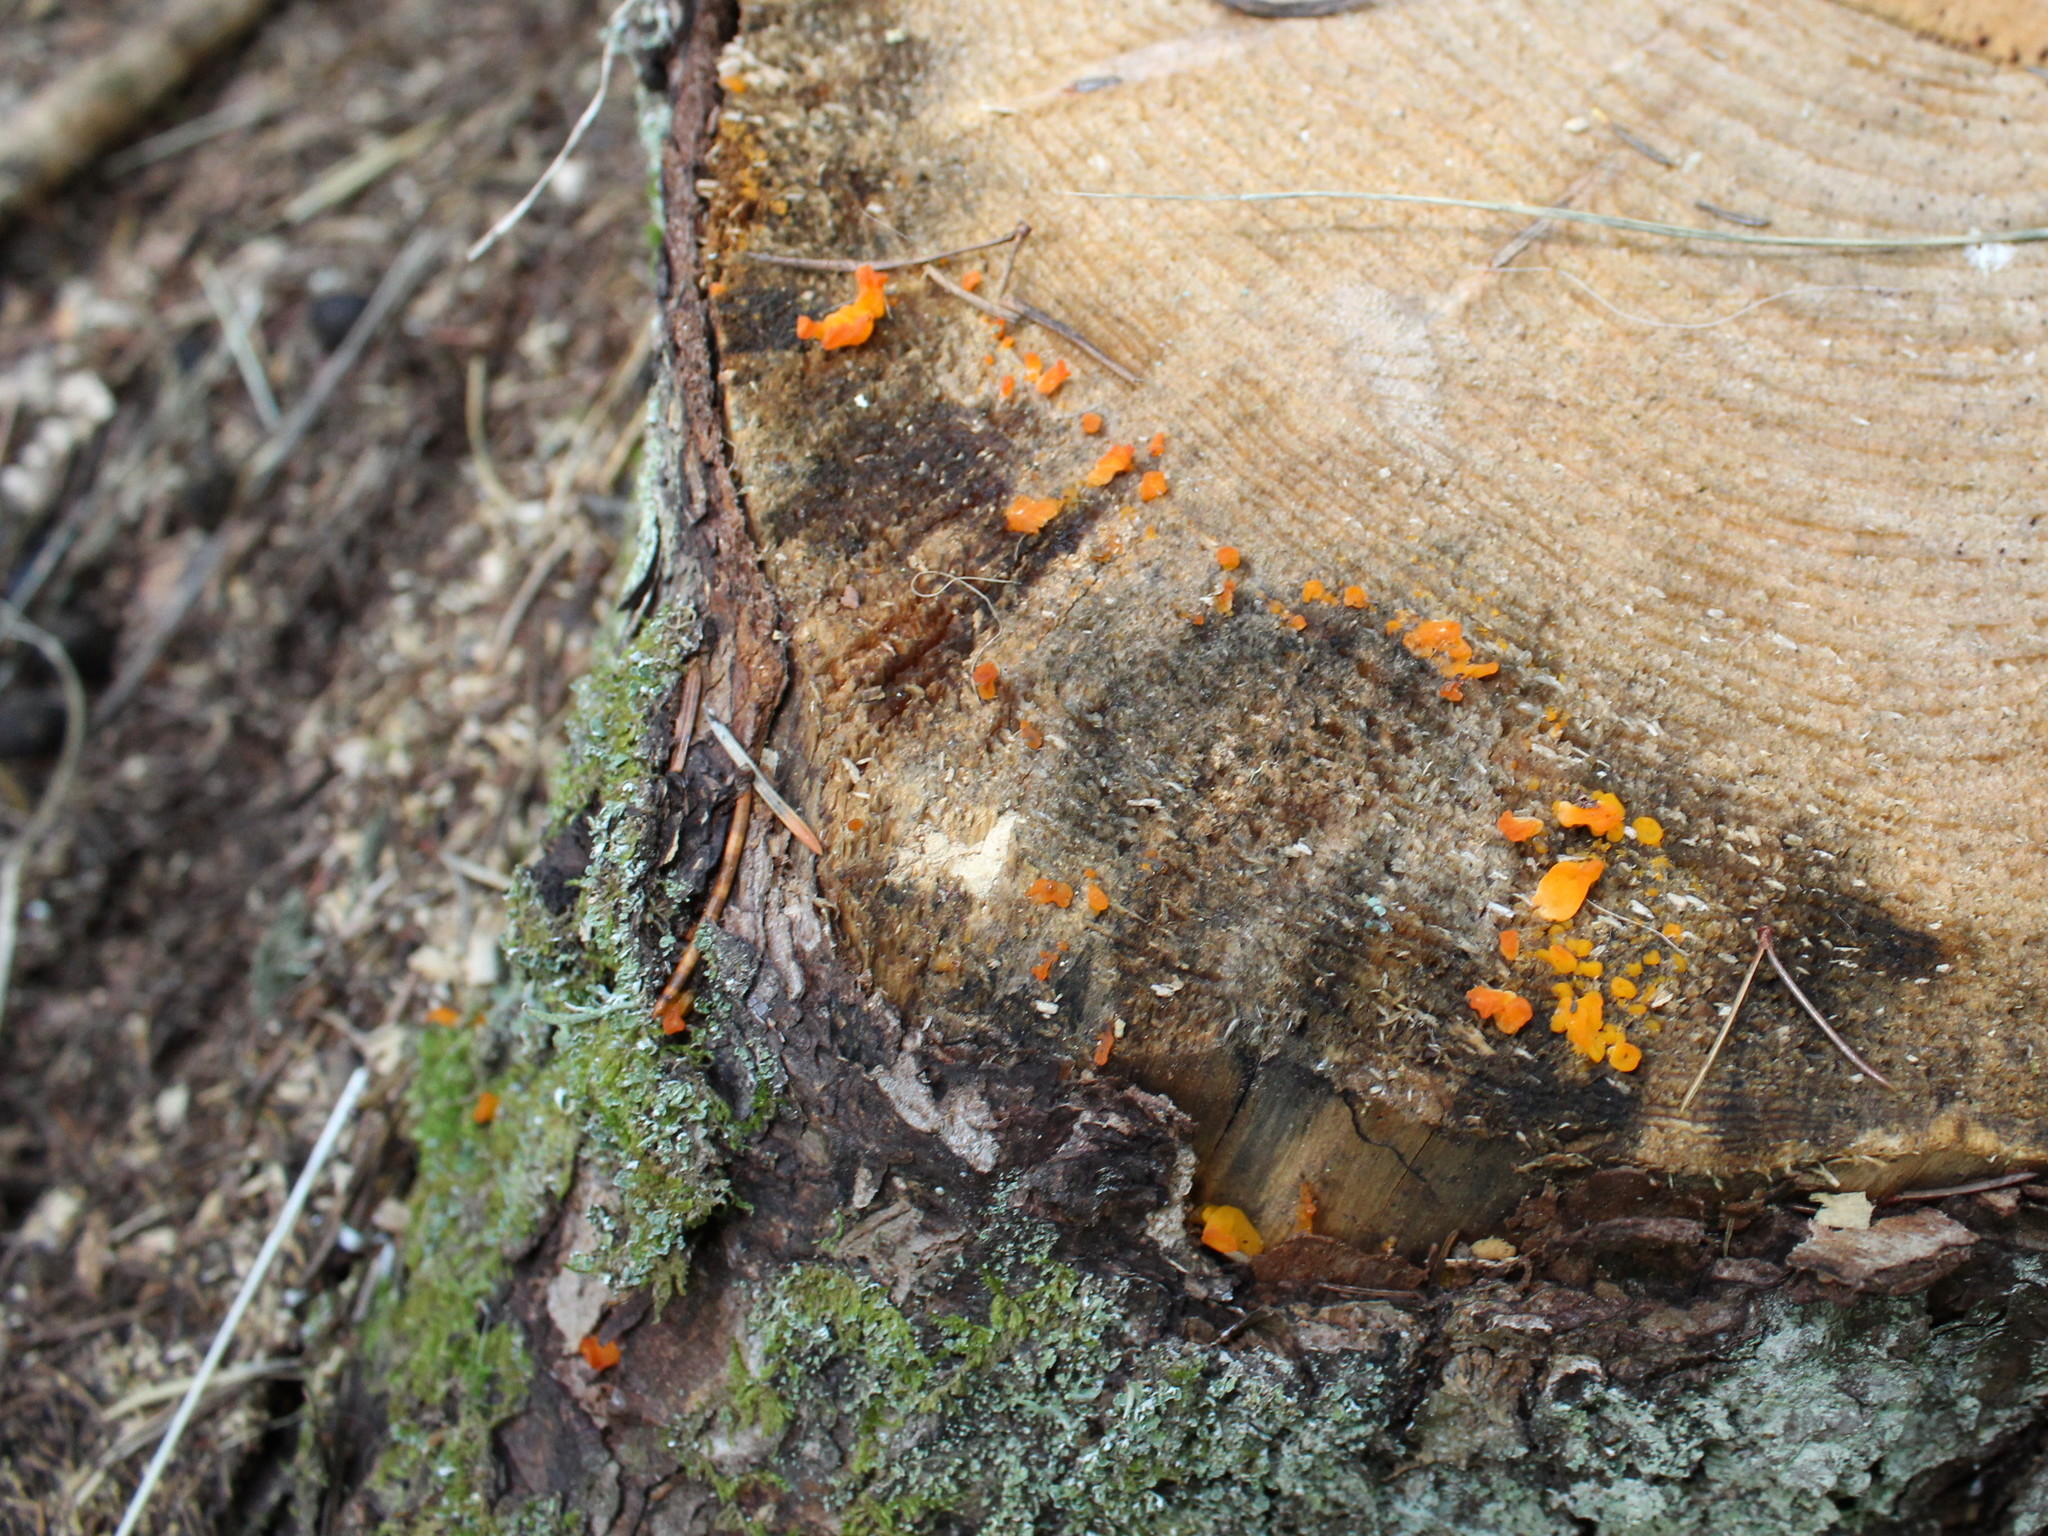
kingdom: Fungi
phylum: Basidiomycota
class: Dacrymycetes
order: Dacrymycetales
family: Dacrymycetaceae
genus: Dacrymyces
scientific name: Dacrymyces chrysospermus
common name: Orange jelly spot
